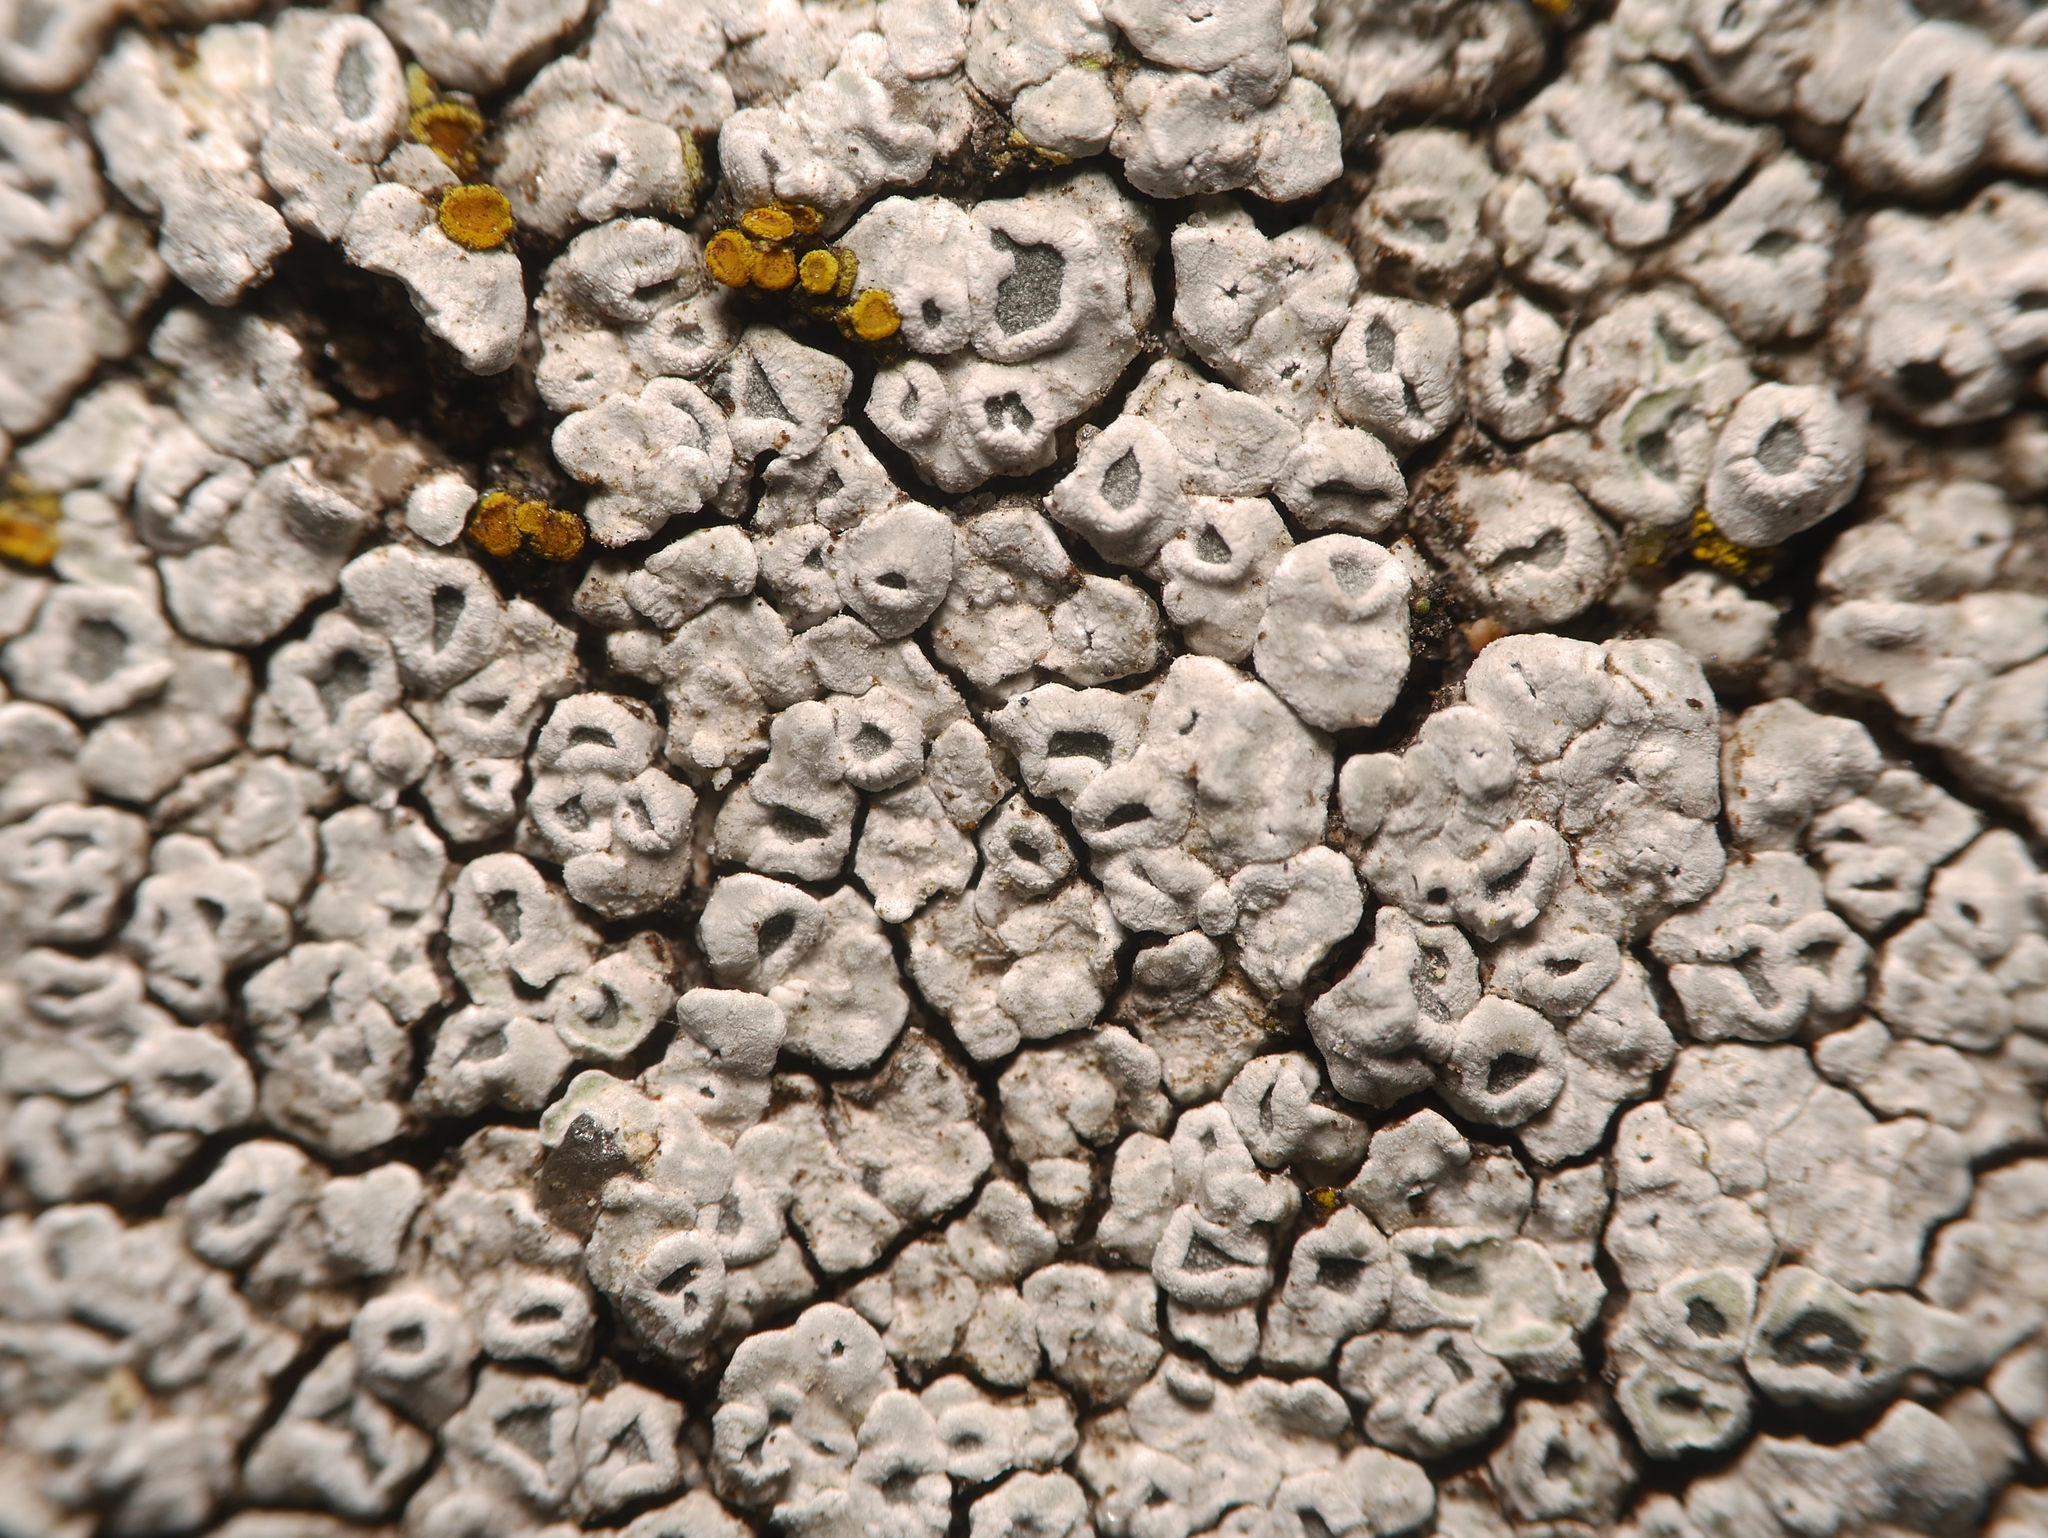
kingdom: Fungi
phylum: Ascomycota
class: Lecanoromycetes
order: Pertusariales
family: Megasporaceae
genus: Circinaria
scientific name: Circinaria contorta
